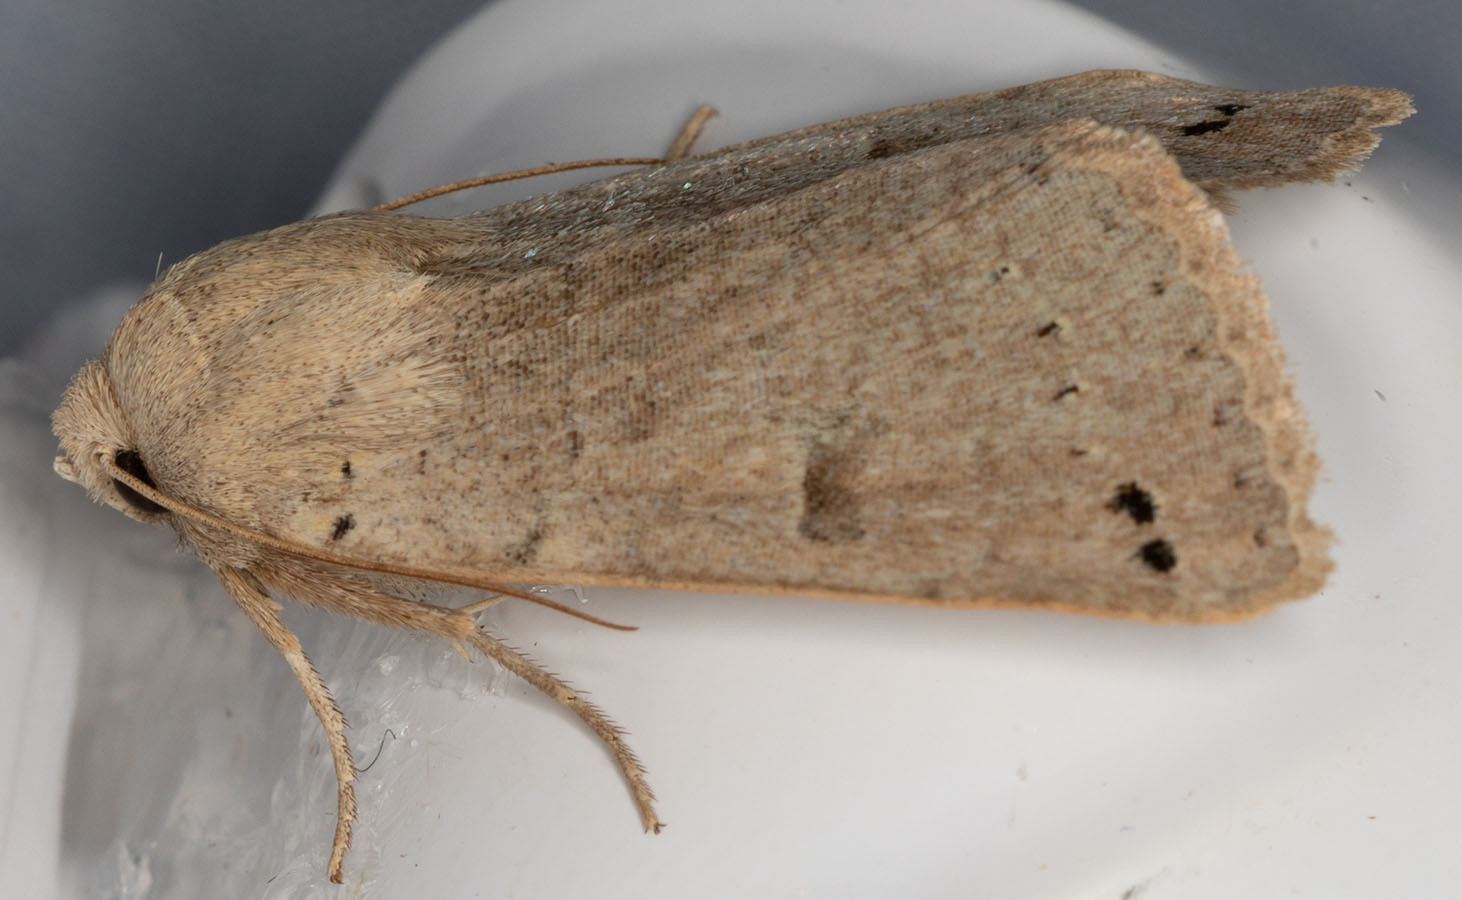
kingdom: Animalia
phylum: Arthropoda
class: Insecta
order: Lepidoptera
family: Erebidae
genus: Cissusa
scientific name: Cissusa indiscreta
